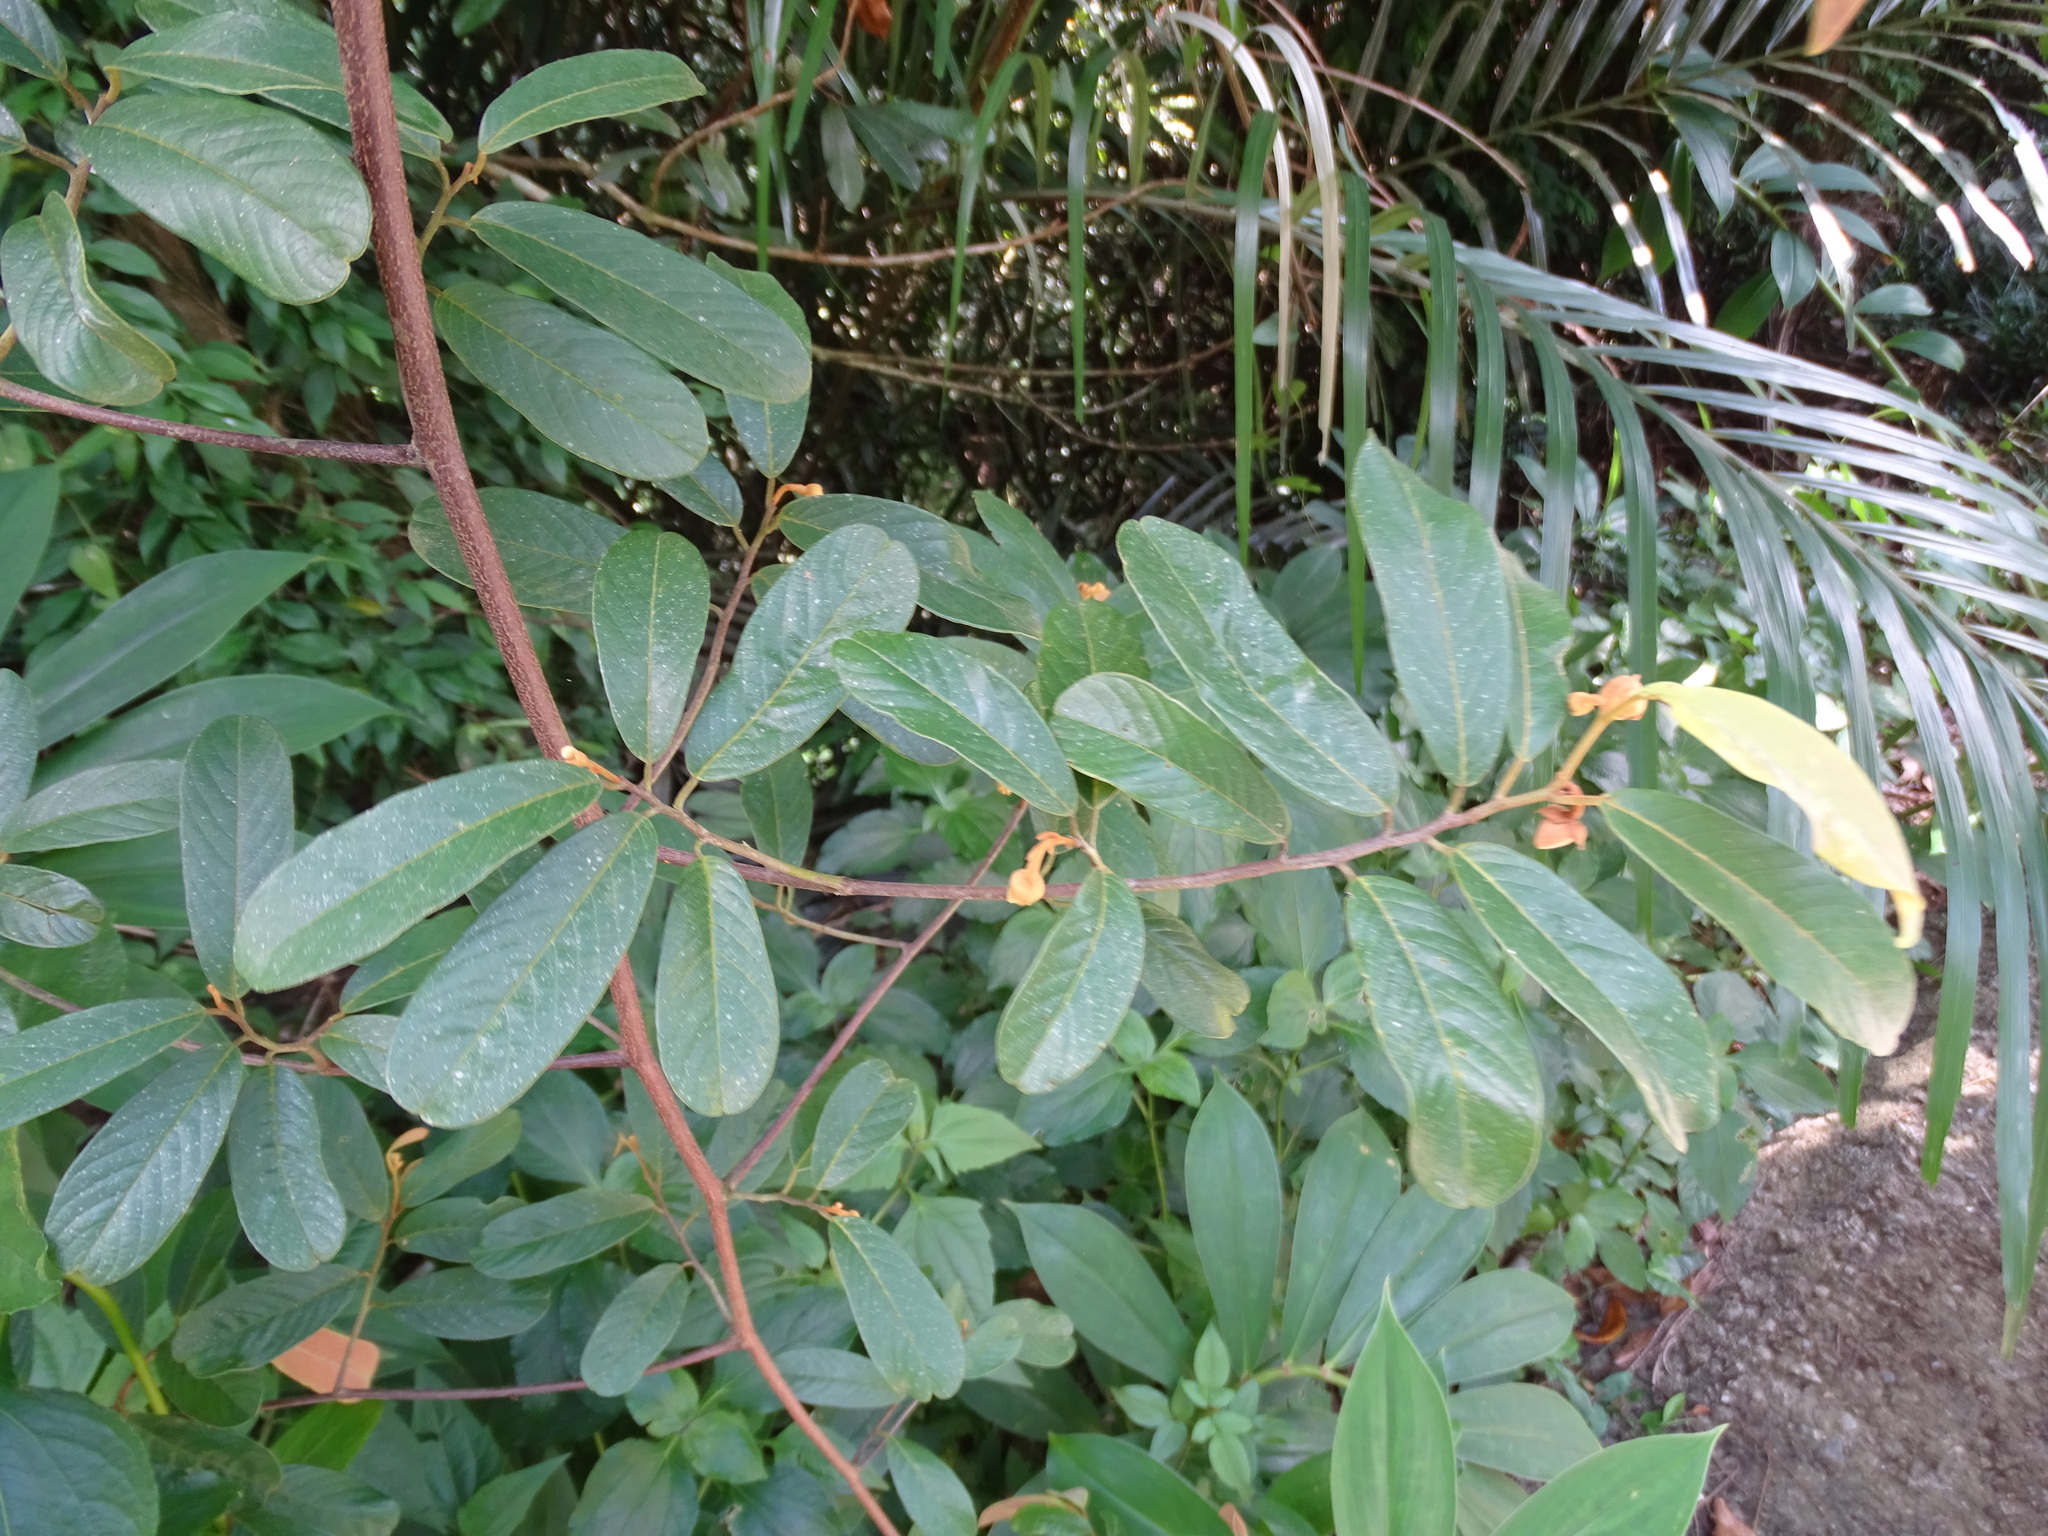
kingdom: Plantae
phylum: Tracheophyta
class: Magnoliopsida
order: Magnoliales
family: Annonaceae
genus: Fissistigma
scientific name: Fissistigma oldhamii
